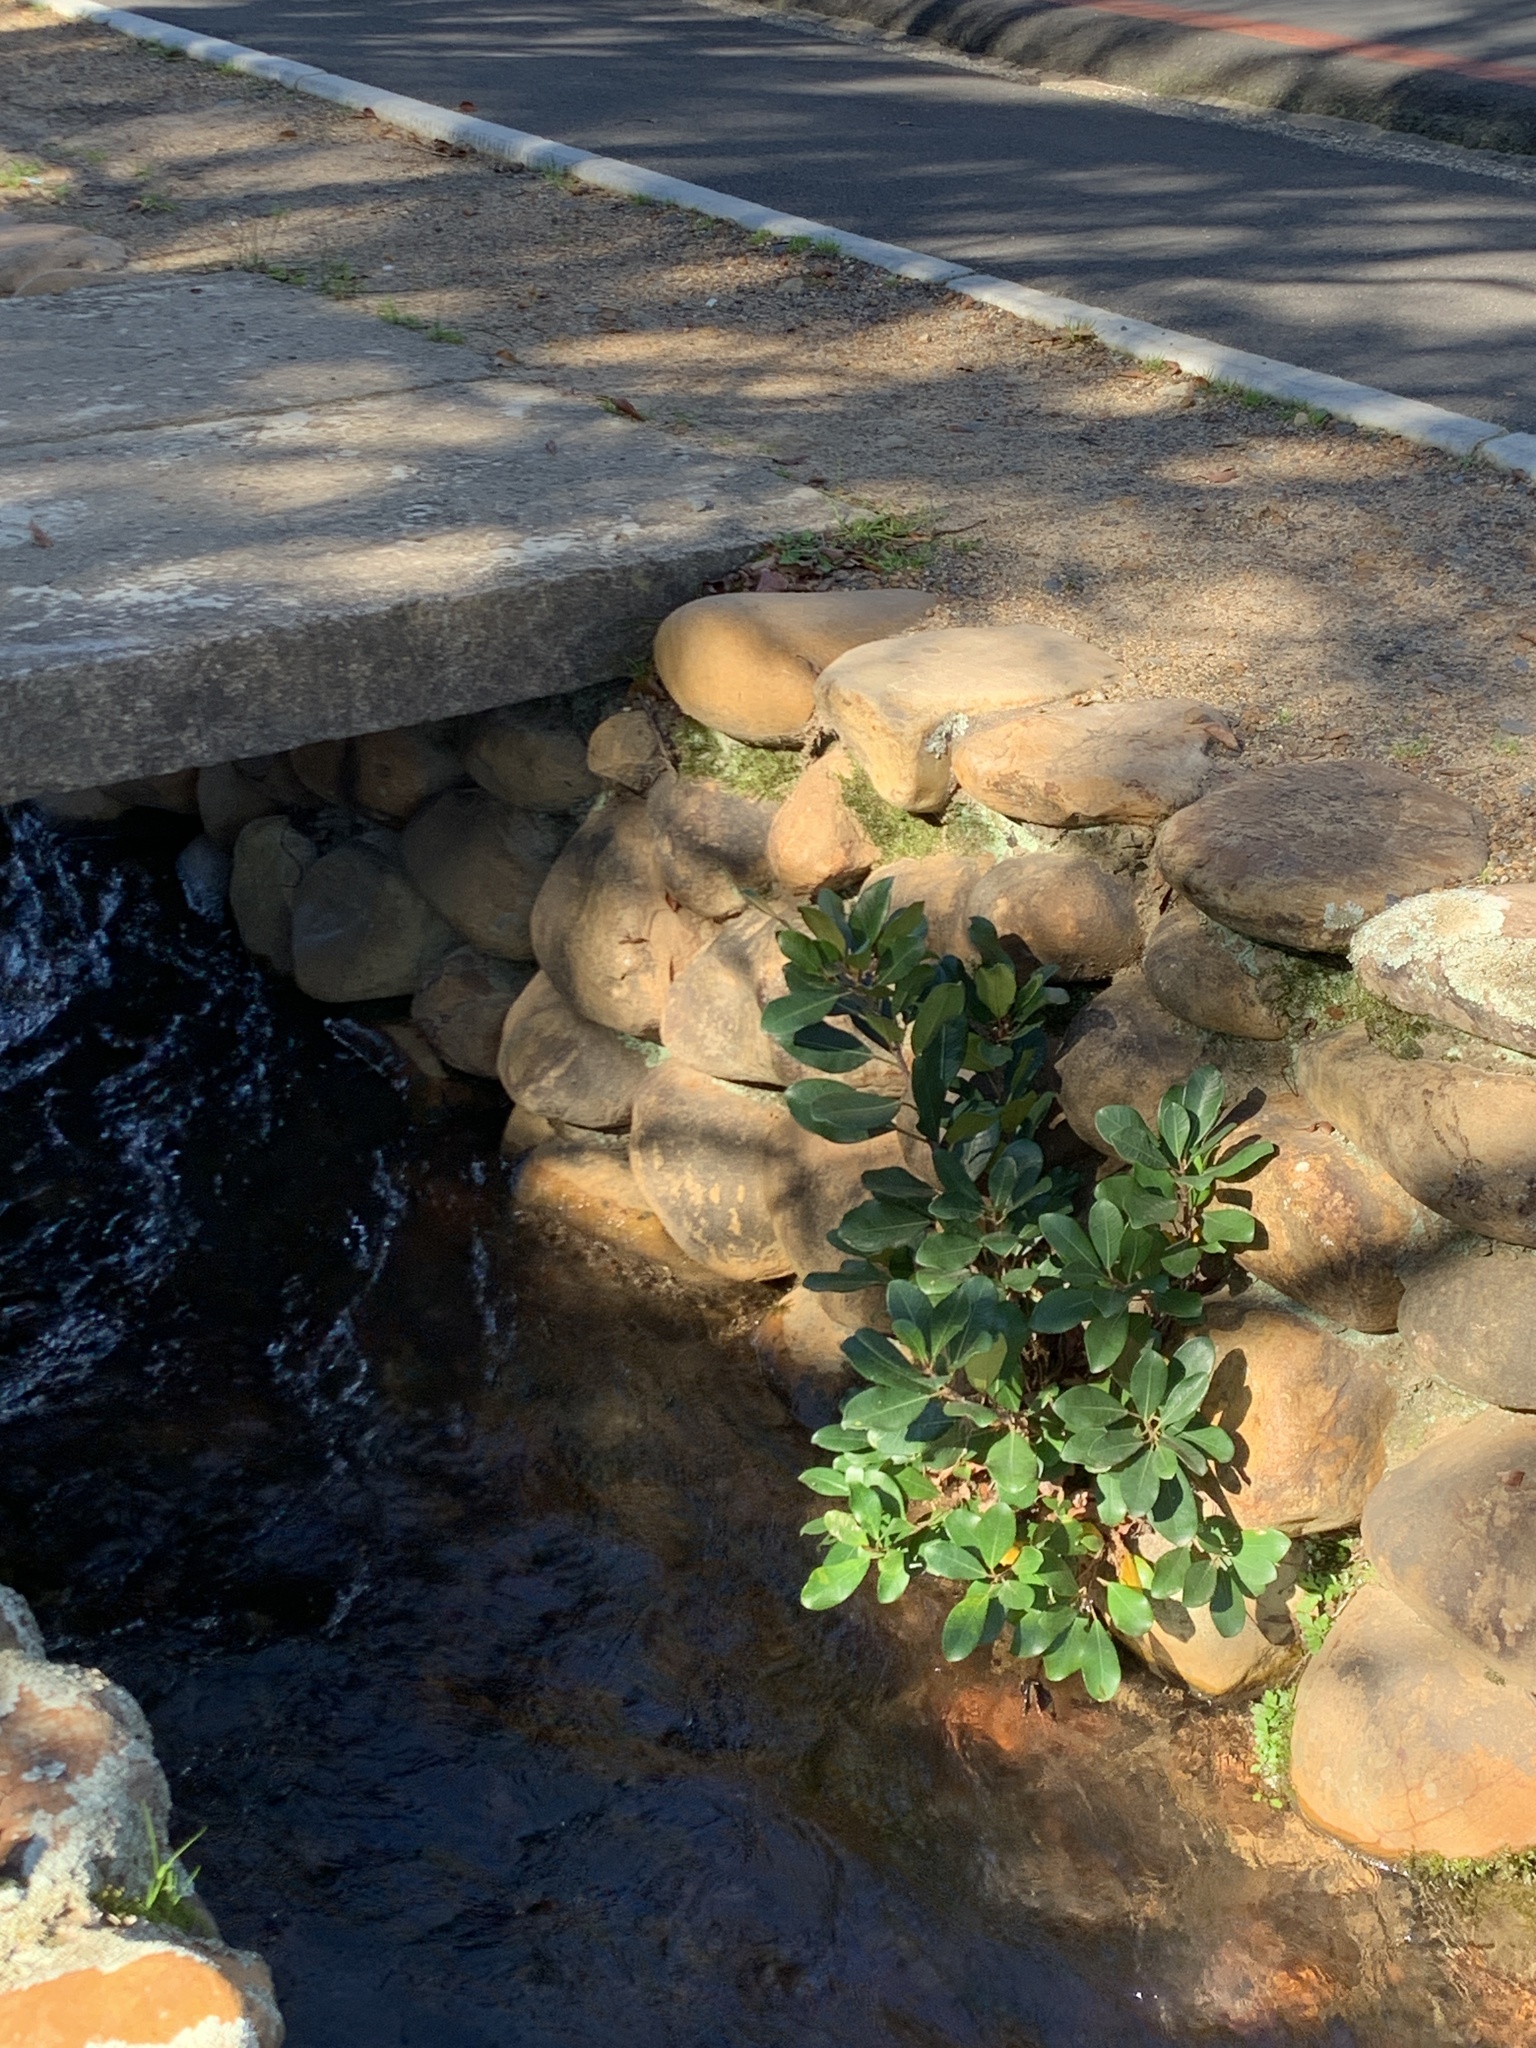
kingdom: Plantae
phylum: Tracheophyta
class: Magnoliopsida
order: Rosales
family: Moraceae
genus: Ficus
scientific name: Ficus thonningii
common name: Fig
